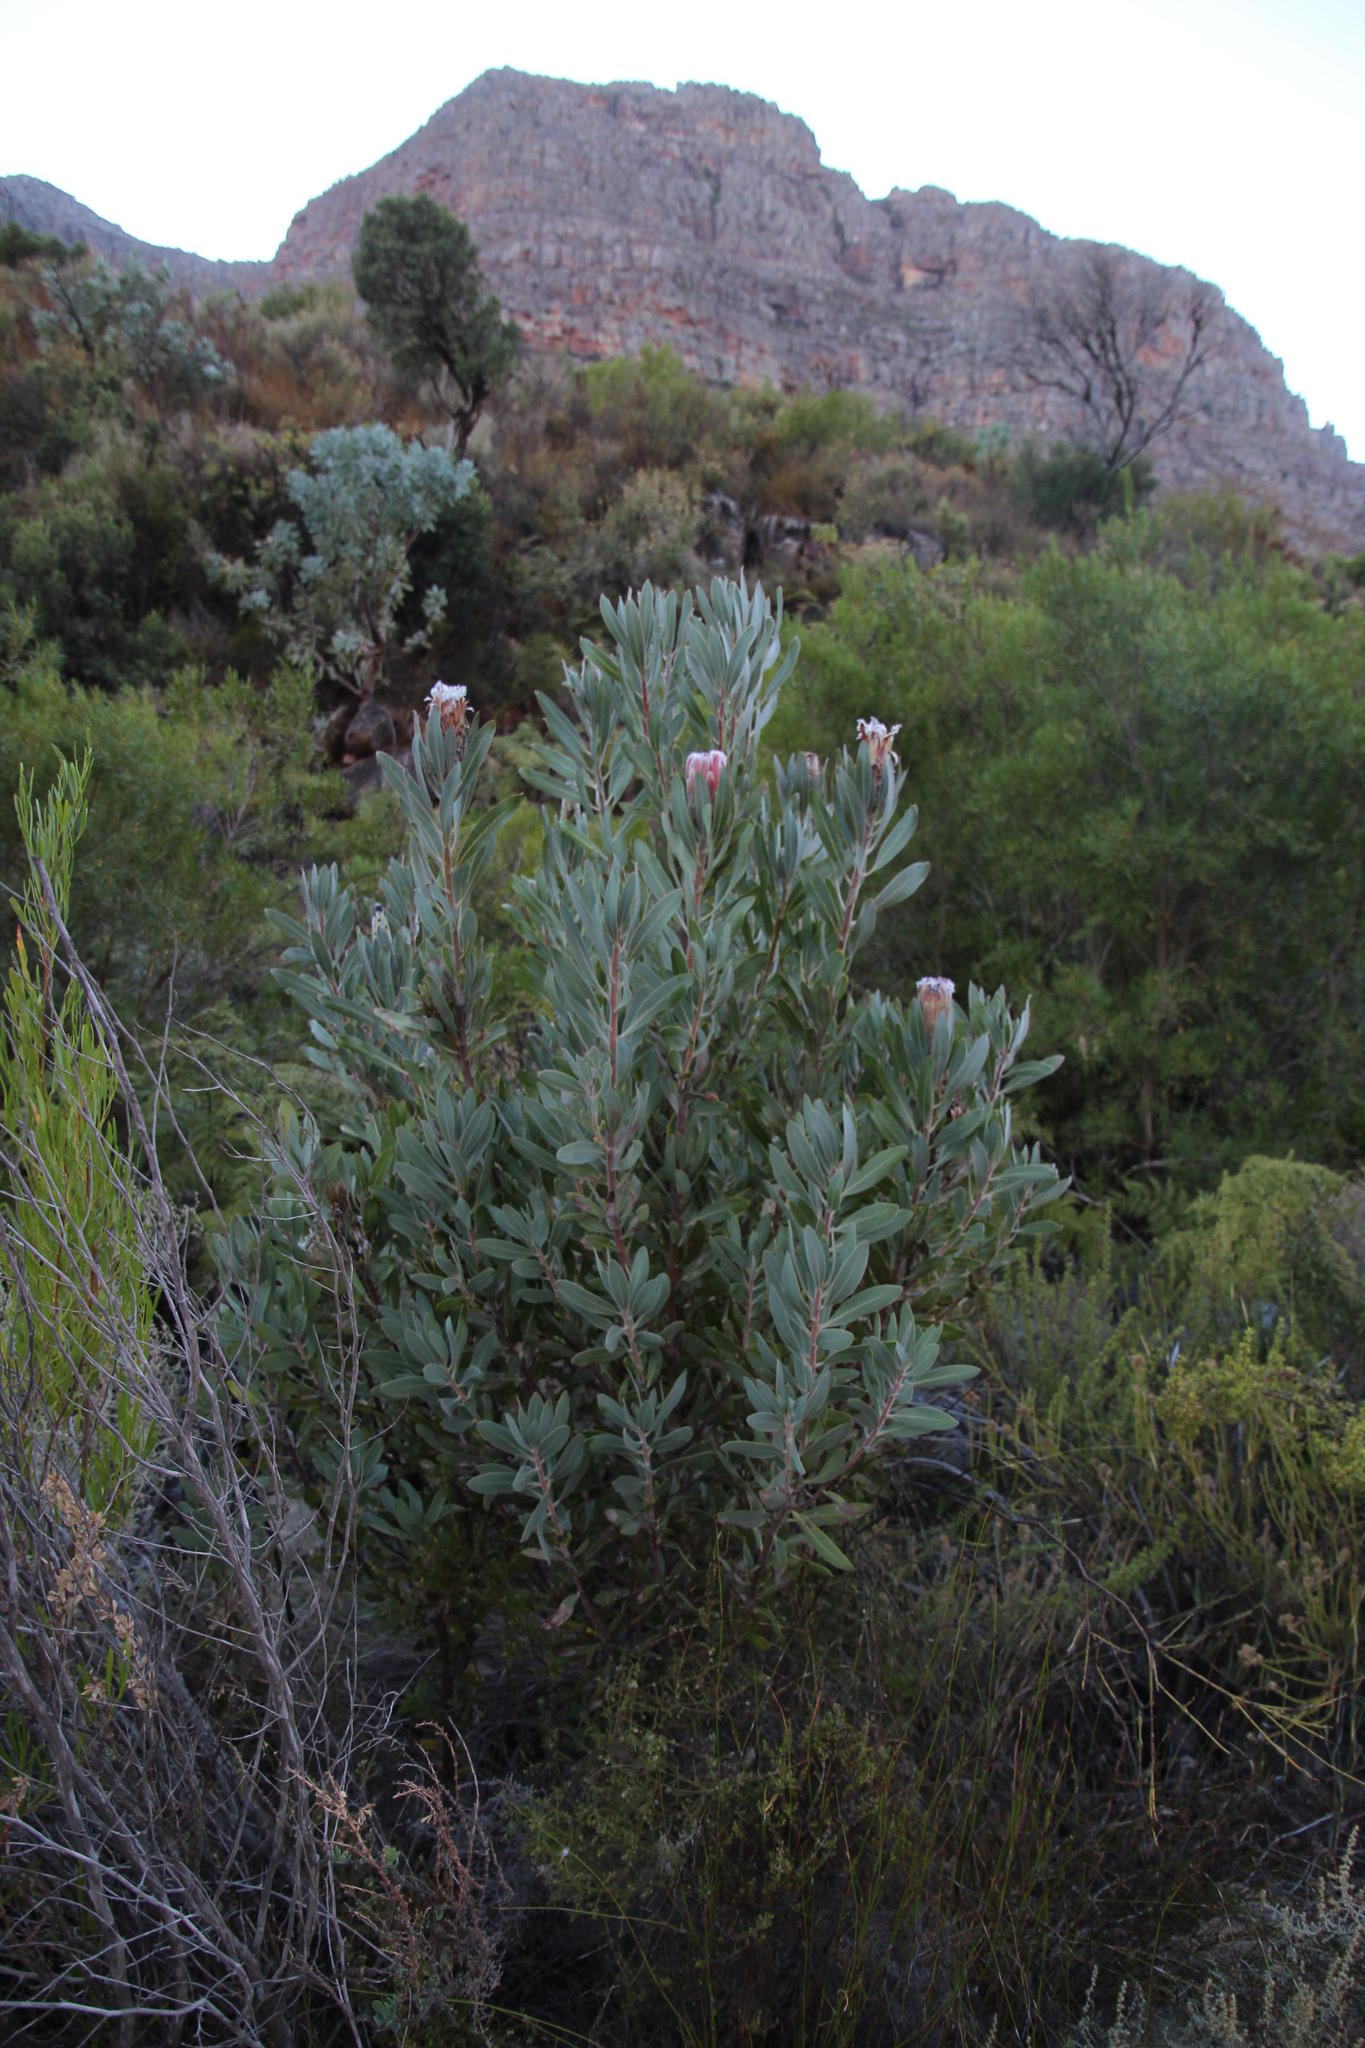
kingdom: Plantae
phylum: Tracheophyta
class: Magnoliopsida
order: Proteales
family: Proteaceae
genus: Protea
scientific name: Protea laurifolia
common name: Grey-leaf sugarbsh
